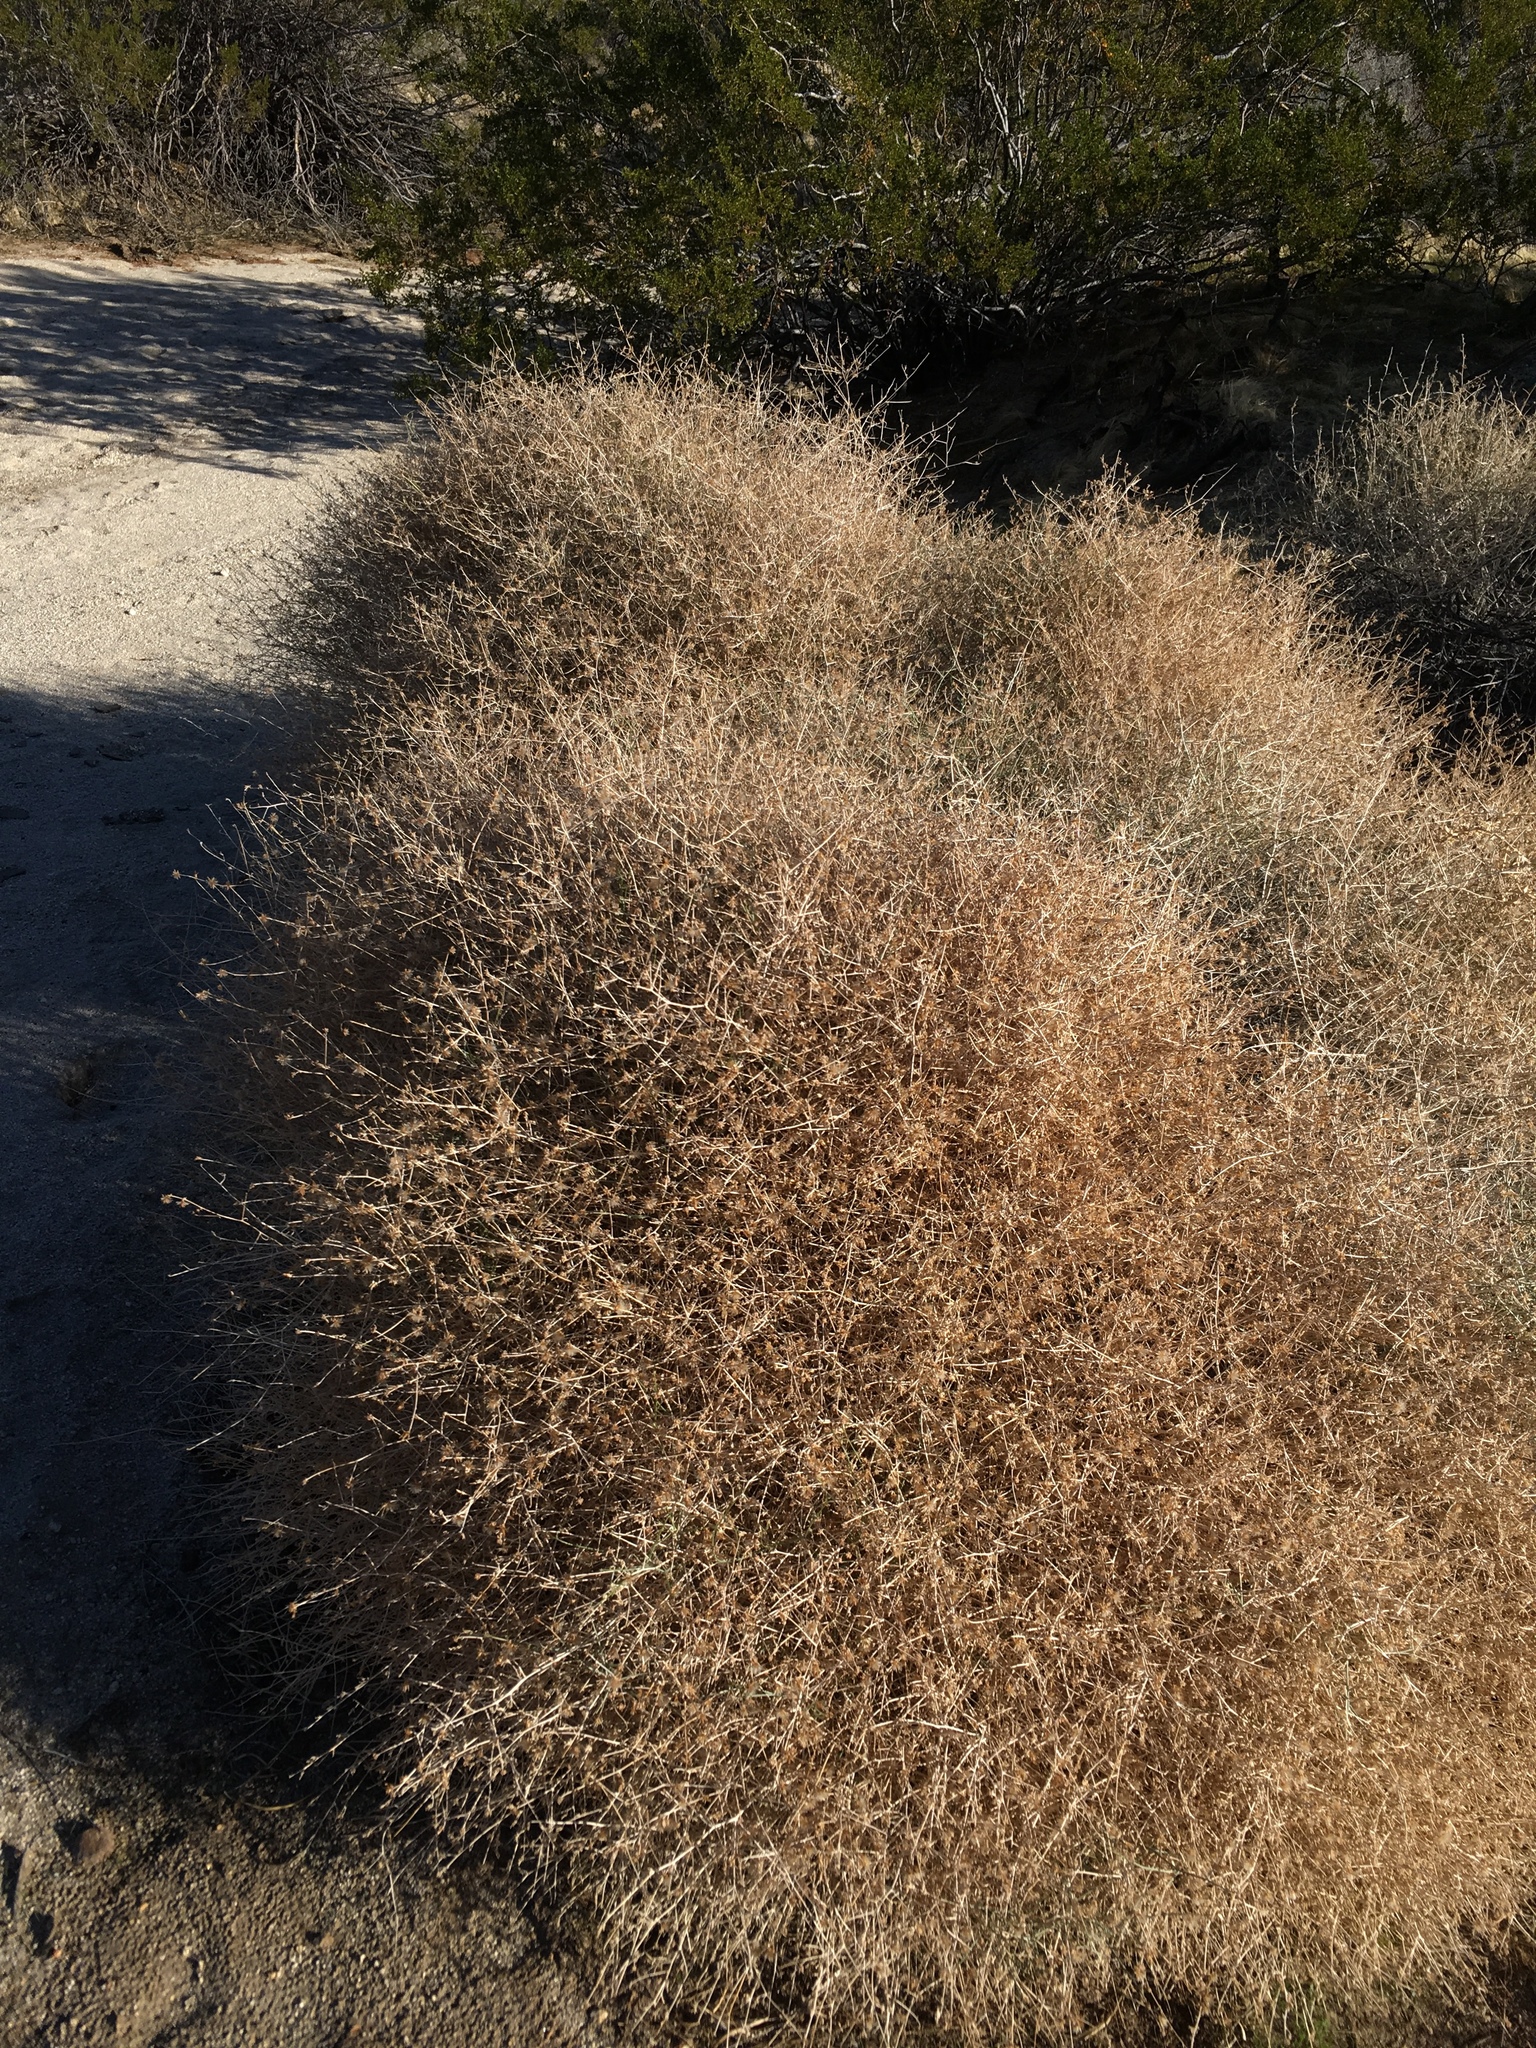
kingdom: Plantae
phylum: Tracheophyta
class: Magnoliopsida
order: Asterales
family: Asteraceae
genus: Stephanomeria
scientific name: Stephanomeria pauciflora
